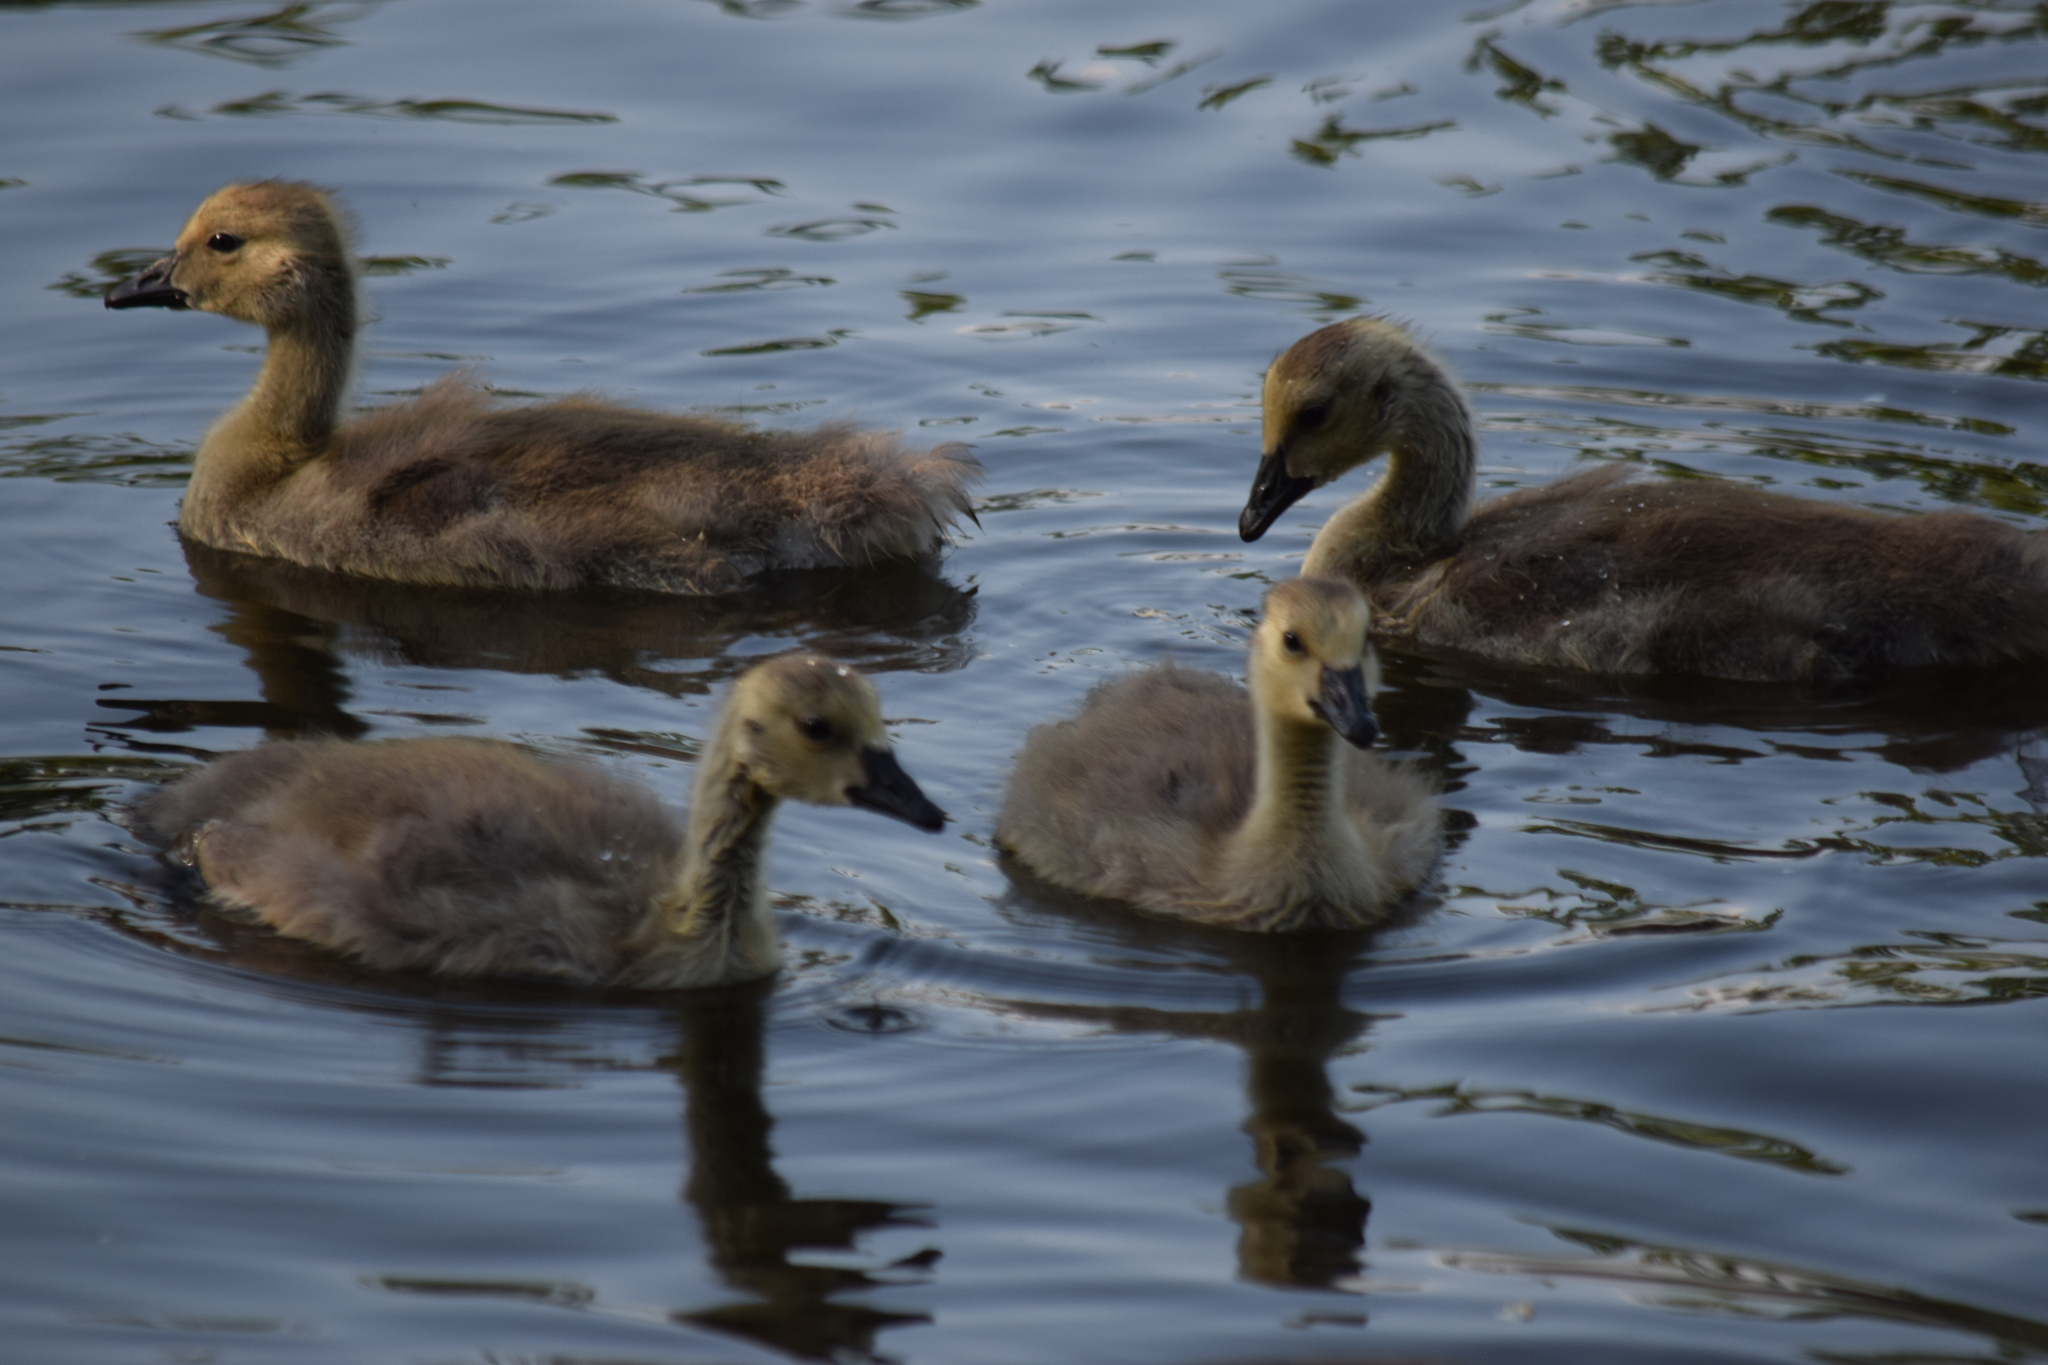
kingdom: Animalia
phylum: Chordata
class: Aves
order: Anseriformes
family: Anatidae
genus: Branta
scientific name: Branta canadensis
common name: Canada goose
